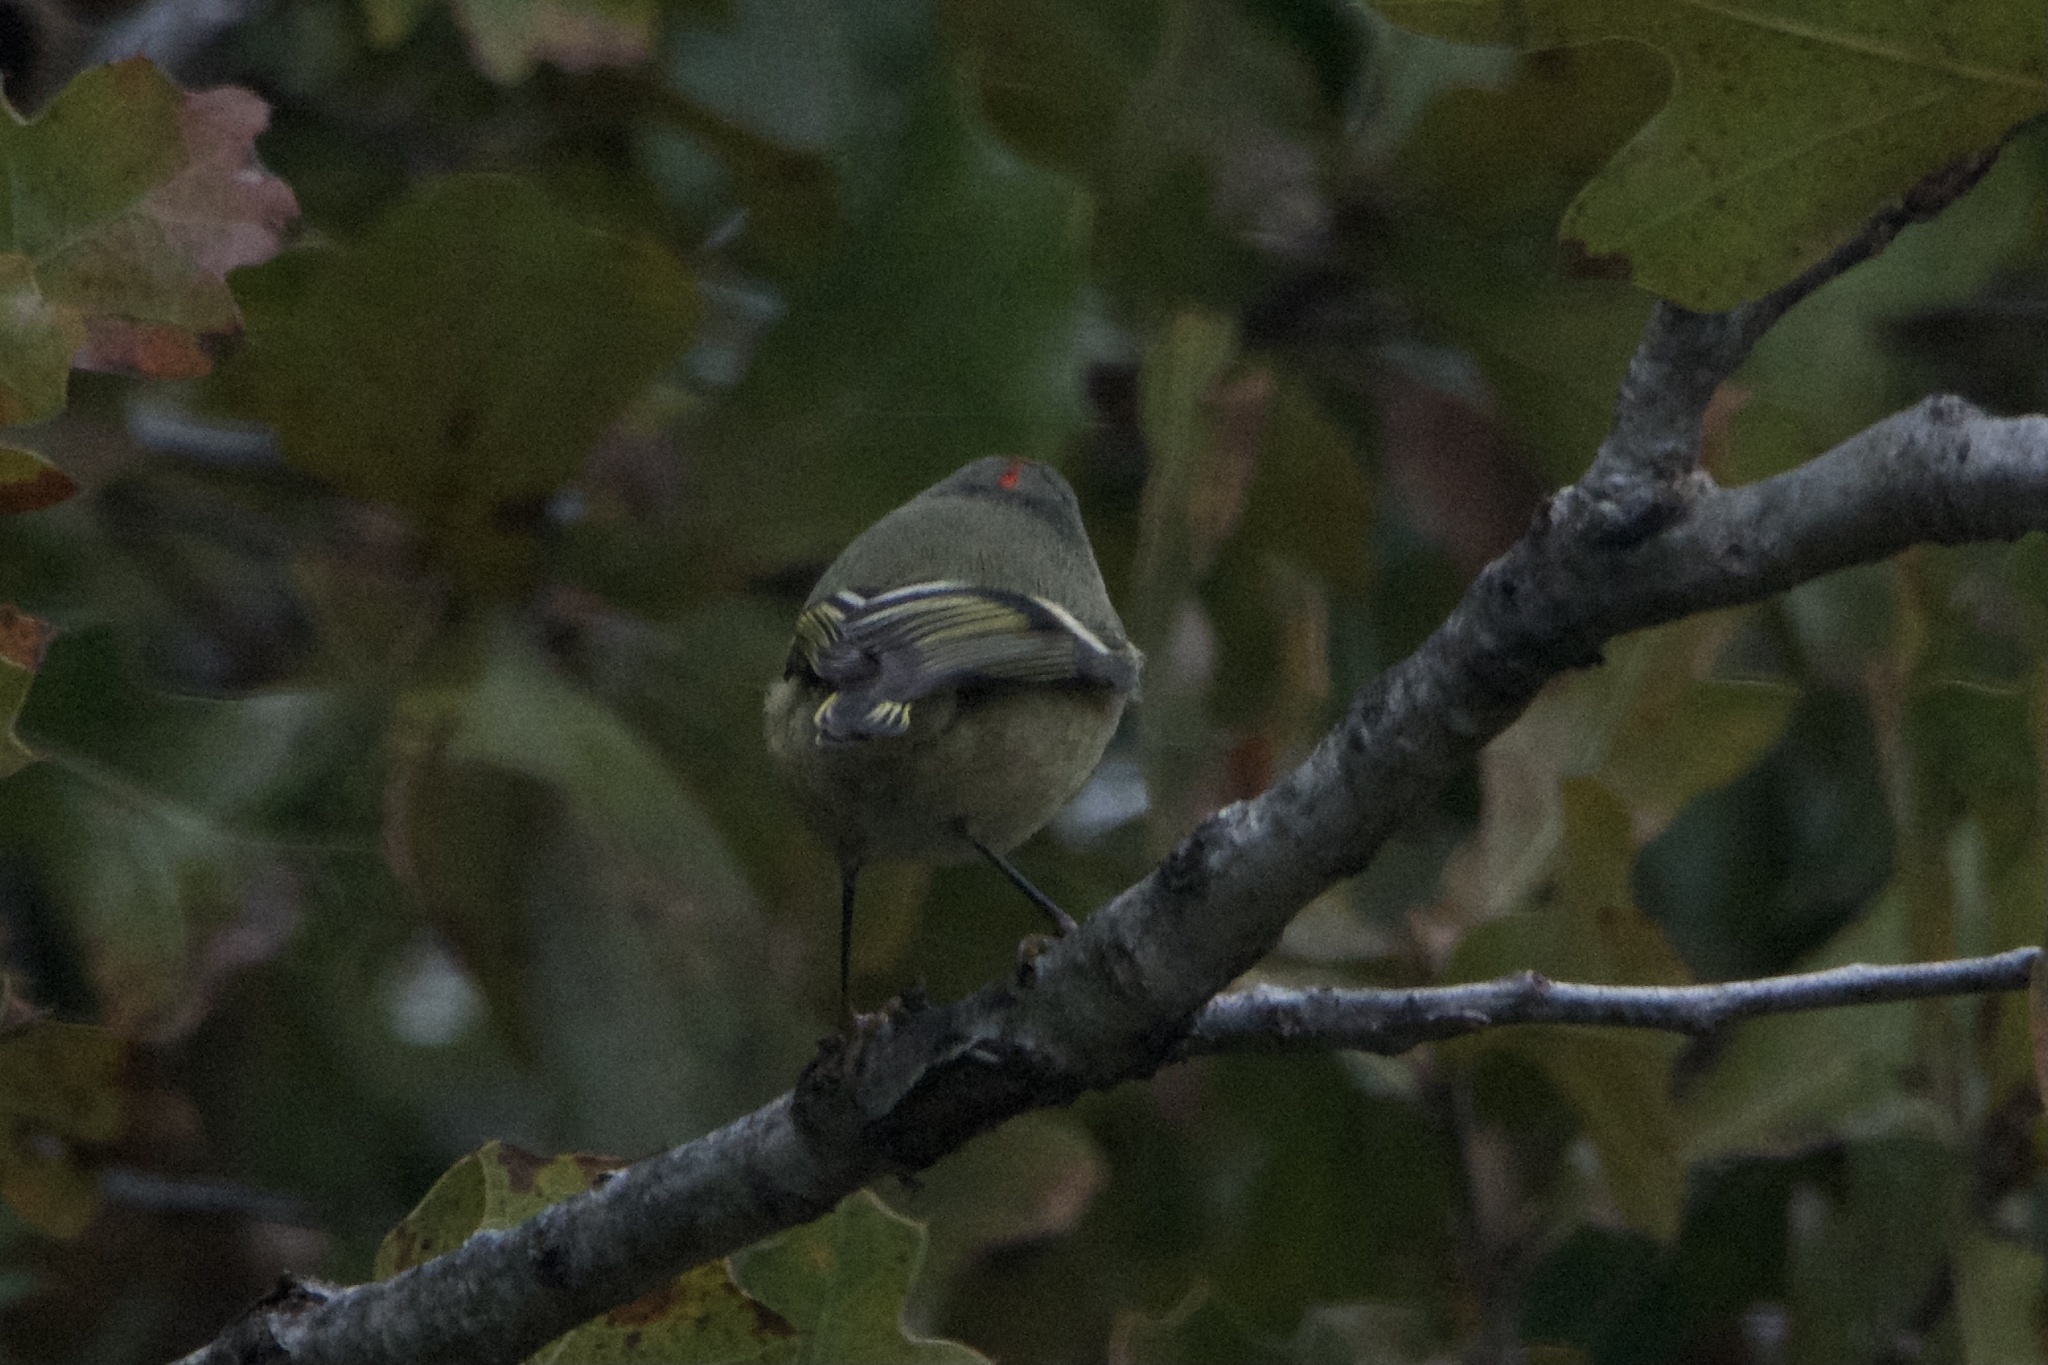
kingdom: Animalia
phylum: Chordata
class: Aves
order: Passeriformes
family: Regulidae
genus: Regulus
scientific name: Regulus calendula
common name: Ruby-crowned kinglet
